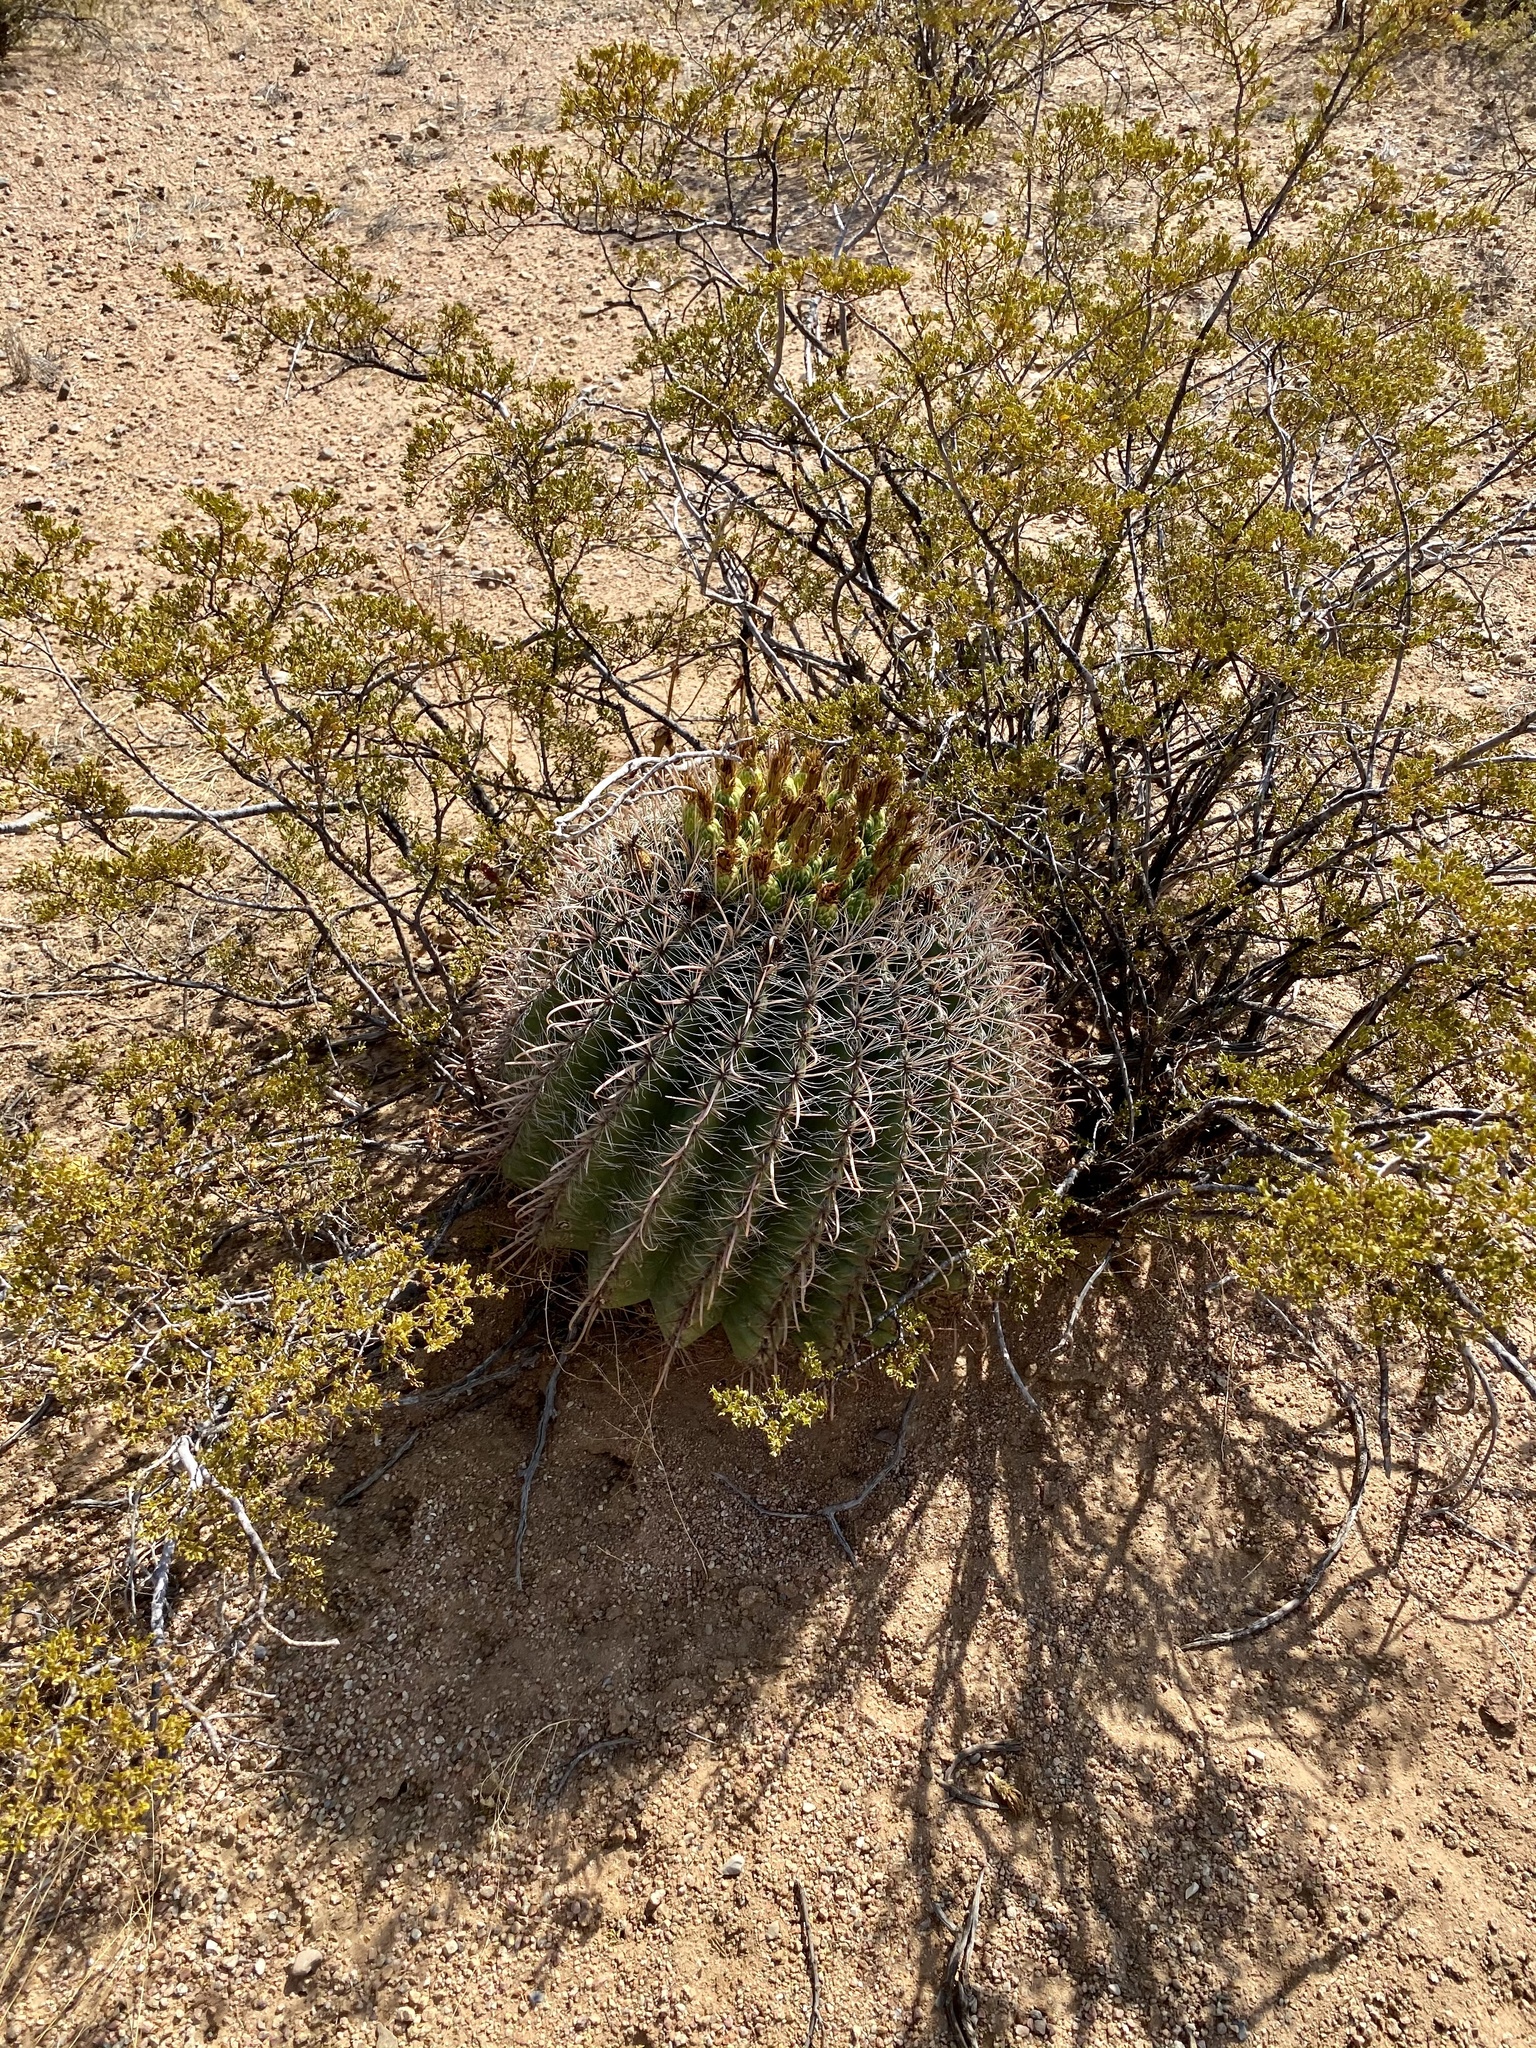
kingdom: Plantae
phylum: Tracheophyta
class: Magnoliopsida
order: Caryophyllales
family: Cactaceae
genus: Ferocactus
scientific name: Ferocactus wislizeni
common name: Candy barrel cactus
